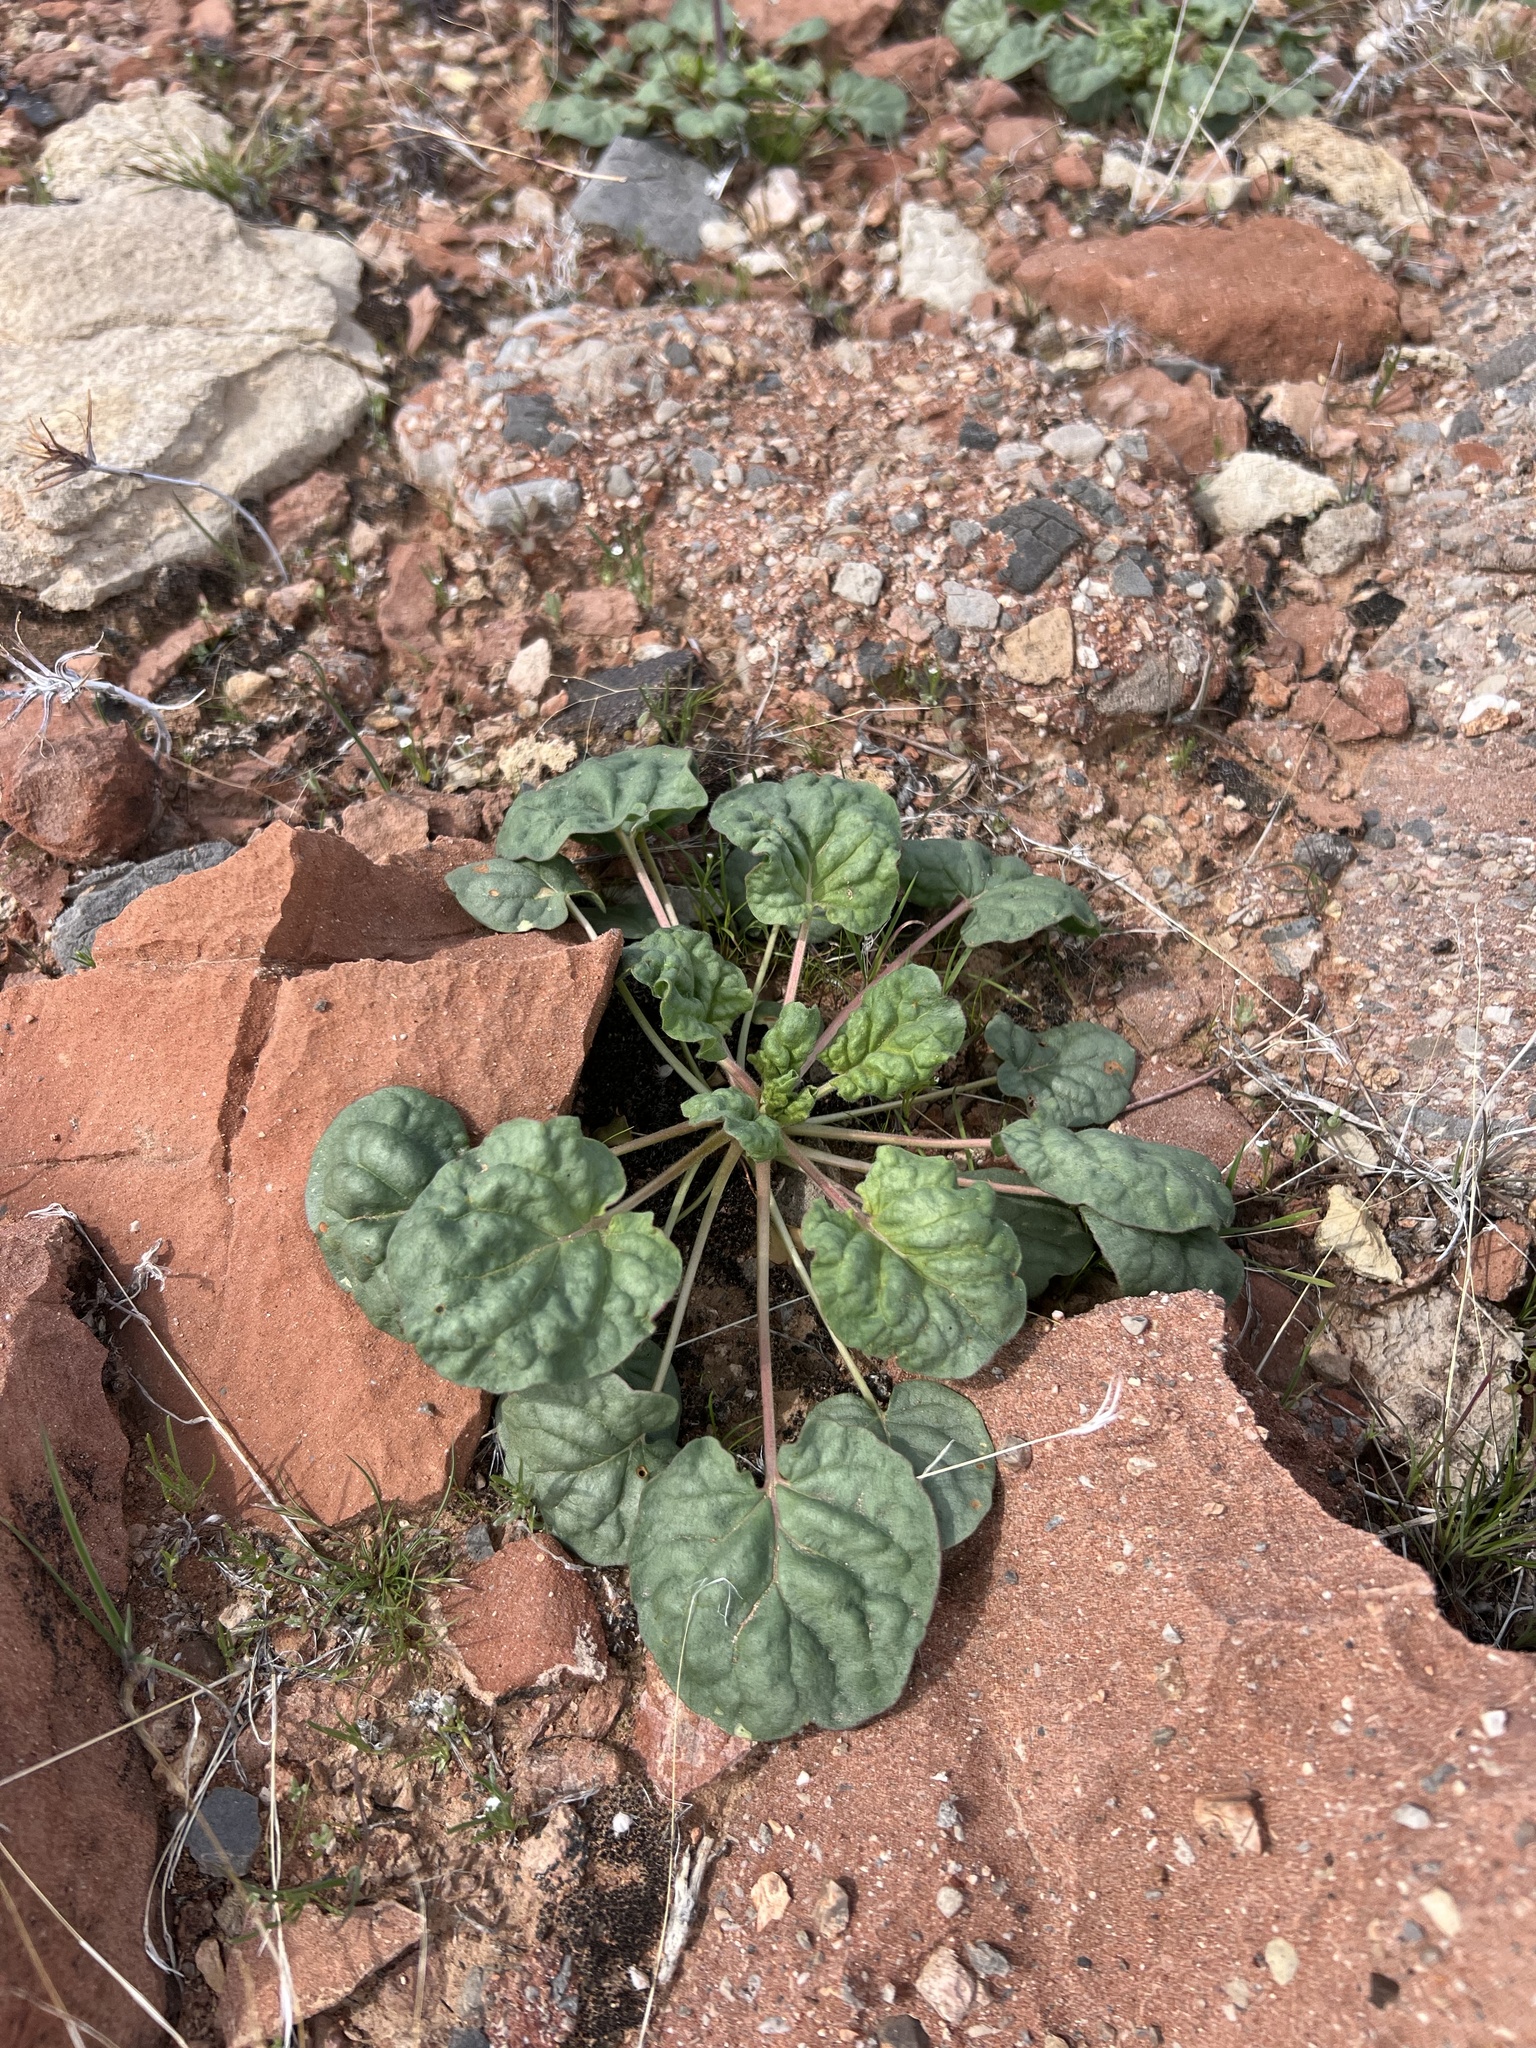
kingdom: Plantae
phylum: Tracheophyta
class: Magnoliopsida
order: Caryophyllales
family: Polygonaceae
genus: Eriogonum
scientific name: Eriogonum inflatum
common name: Desert trumpet
